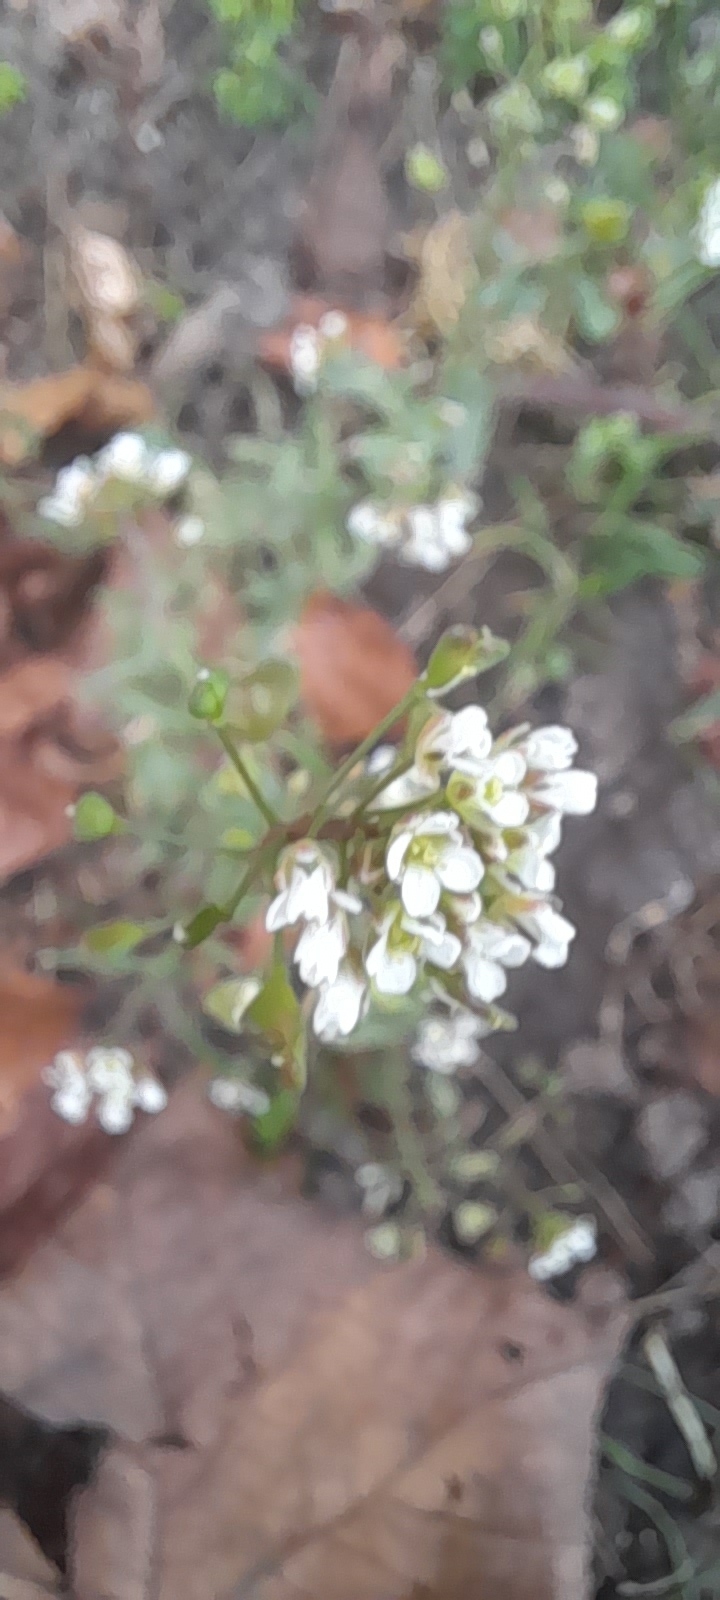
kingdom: Plantae
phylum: Tracheophyta
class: Magnoliopsida
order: Brassicales
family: Brassicaceae
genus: Capsella
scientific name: Capsella bursa-pastoris
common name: Shepherd's purse
